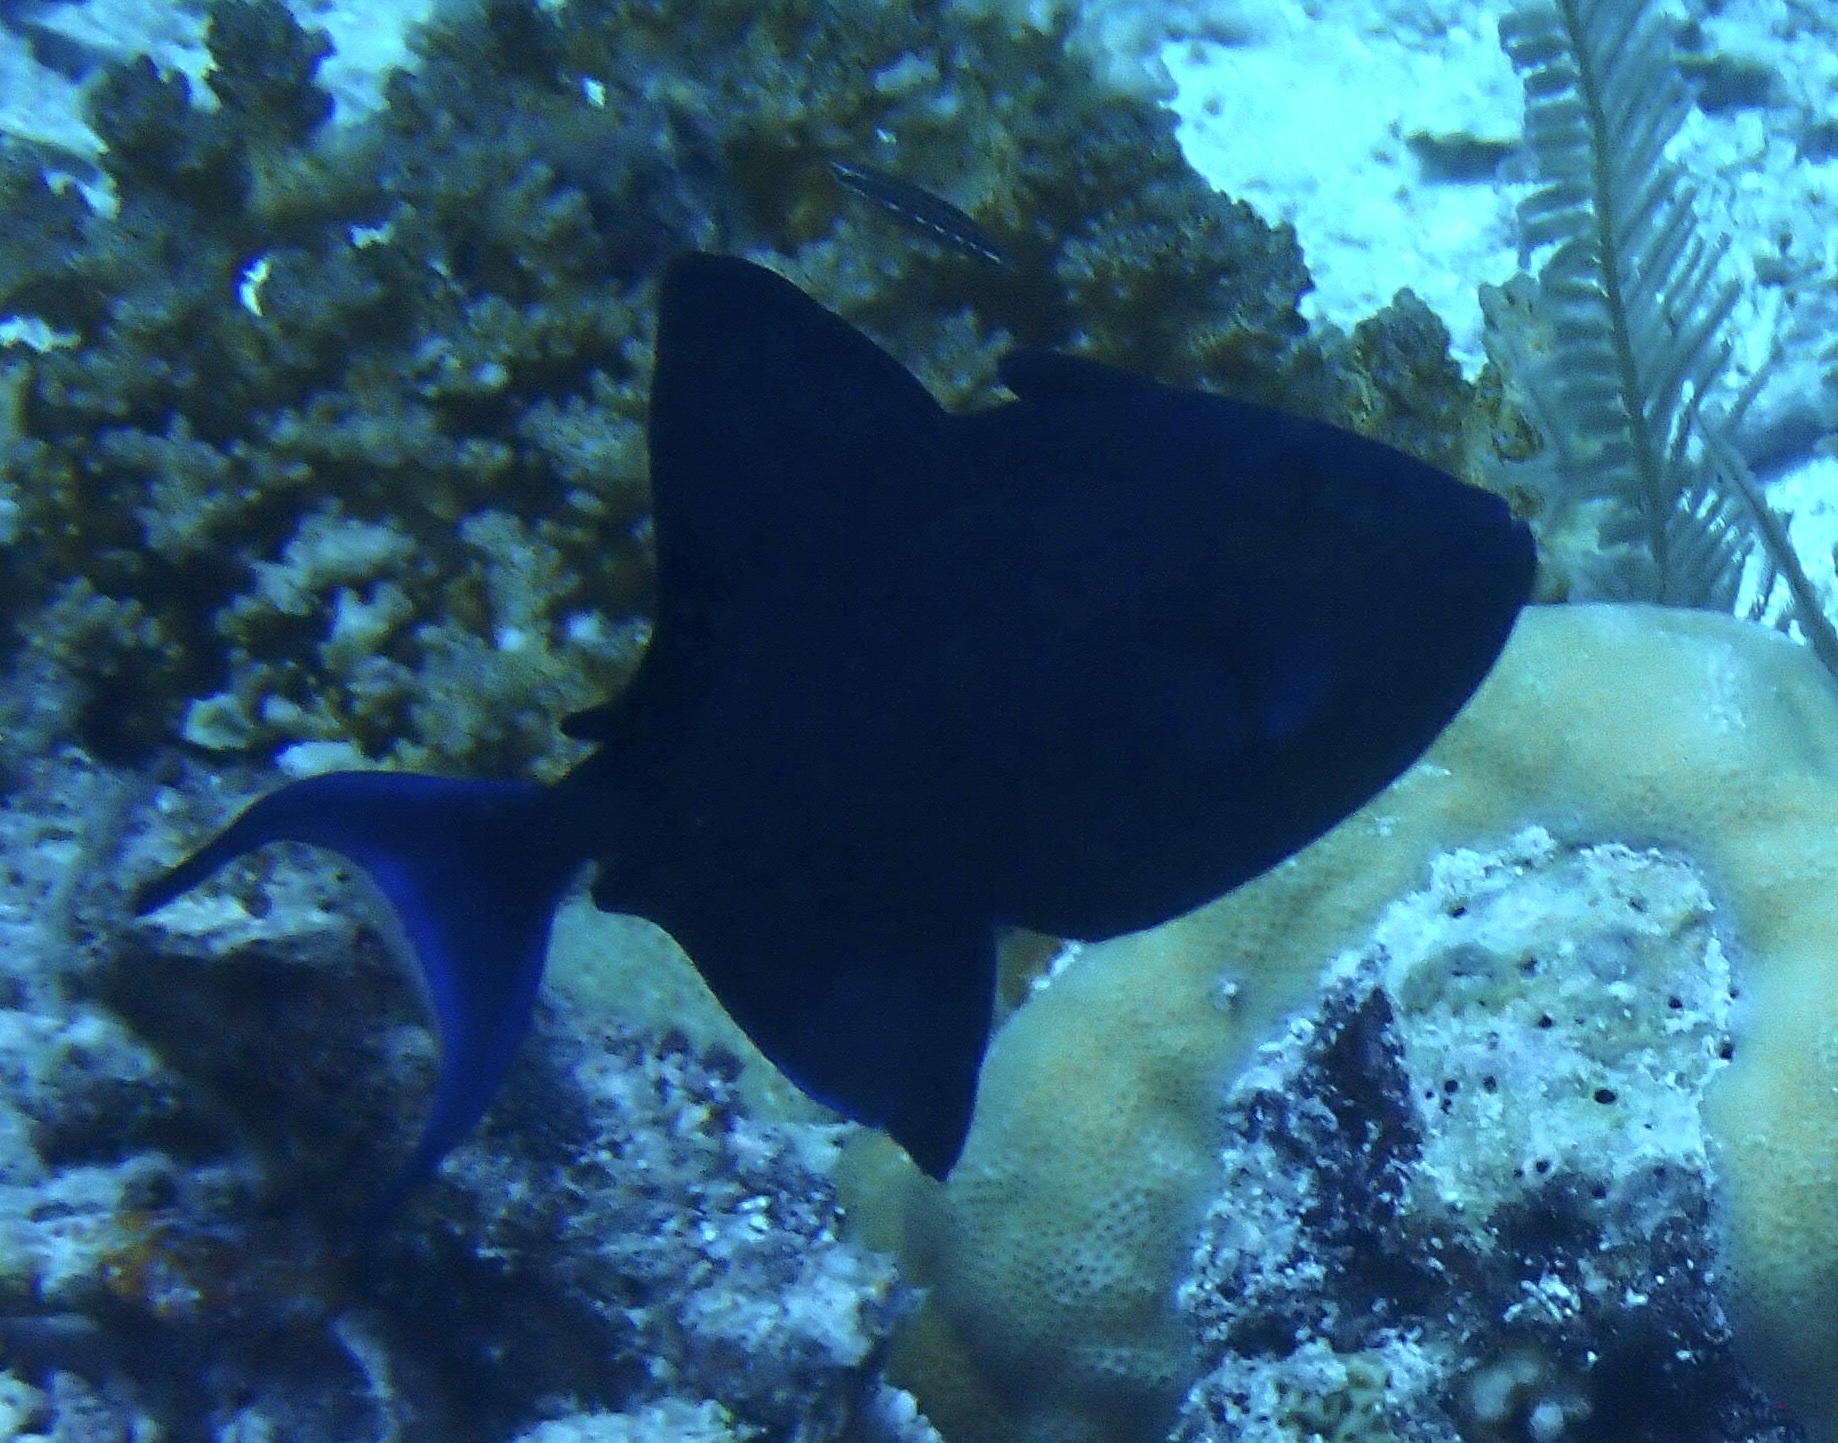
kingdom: Animalia
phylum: Chordata
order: Tetraodontiformes
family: Balistidae
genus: Odonus
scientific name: Odonus niger
